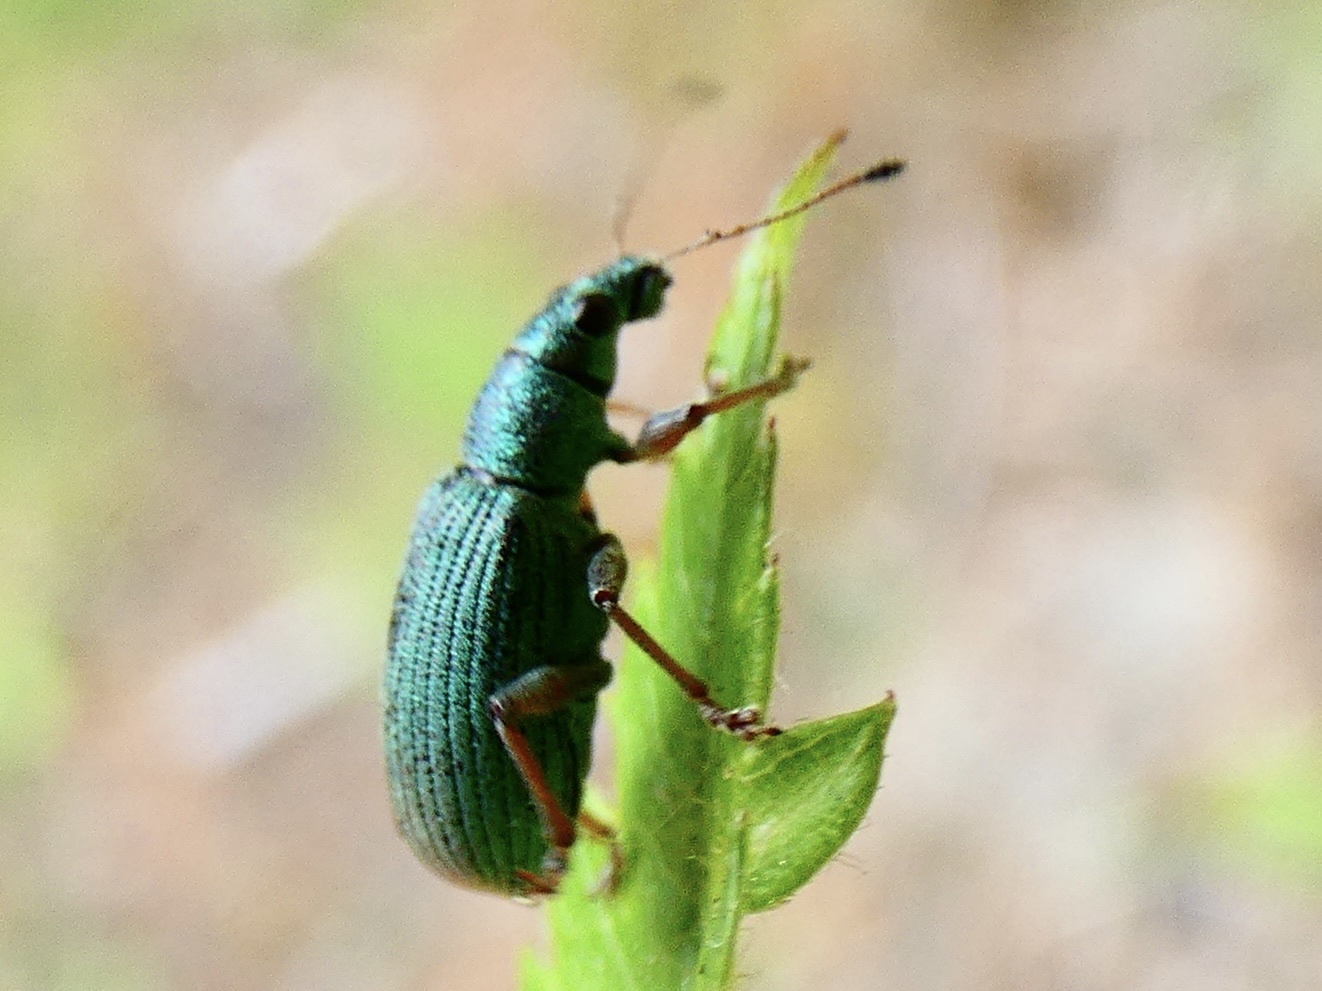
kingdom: Animalia
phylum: Arthropoda
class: Insecta
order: Coleoptera
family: Curculionidae
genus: Polydrusus
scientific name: Polydrusus formosus
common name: Weevil
